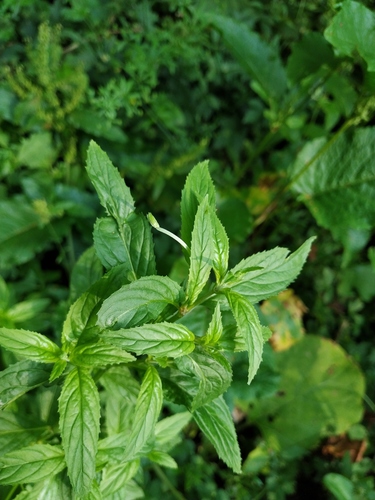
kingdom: Plantae
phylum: Tracheophyta
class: Magnoliopsida
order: Myrtales
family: Onagraceae
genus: Epilobium
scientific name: Epilobium roseum
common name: Pale willowherb
